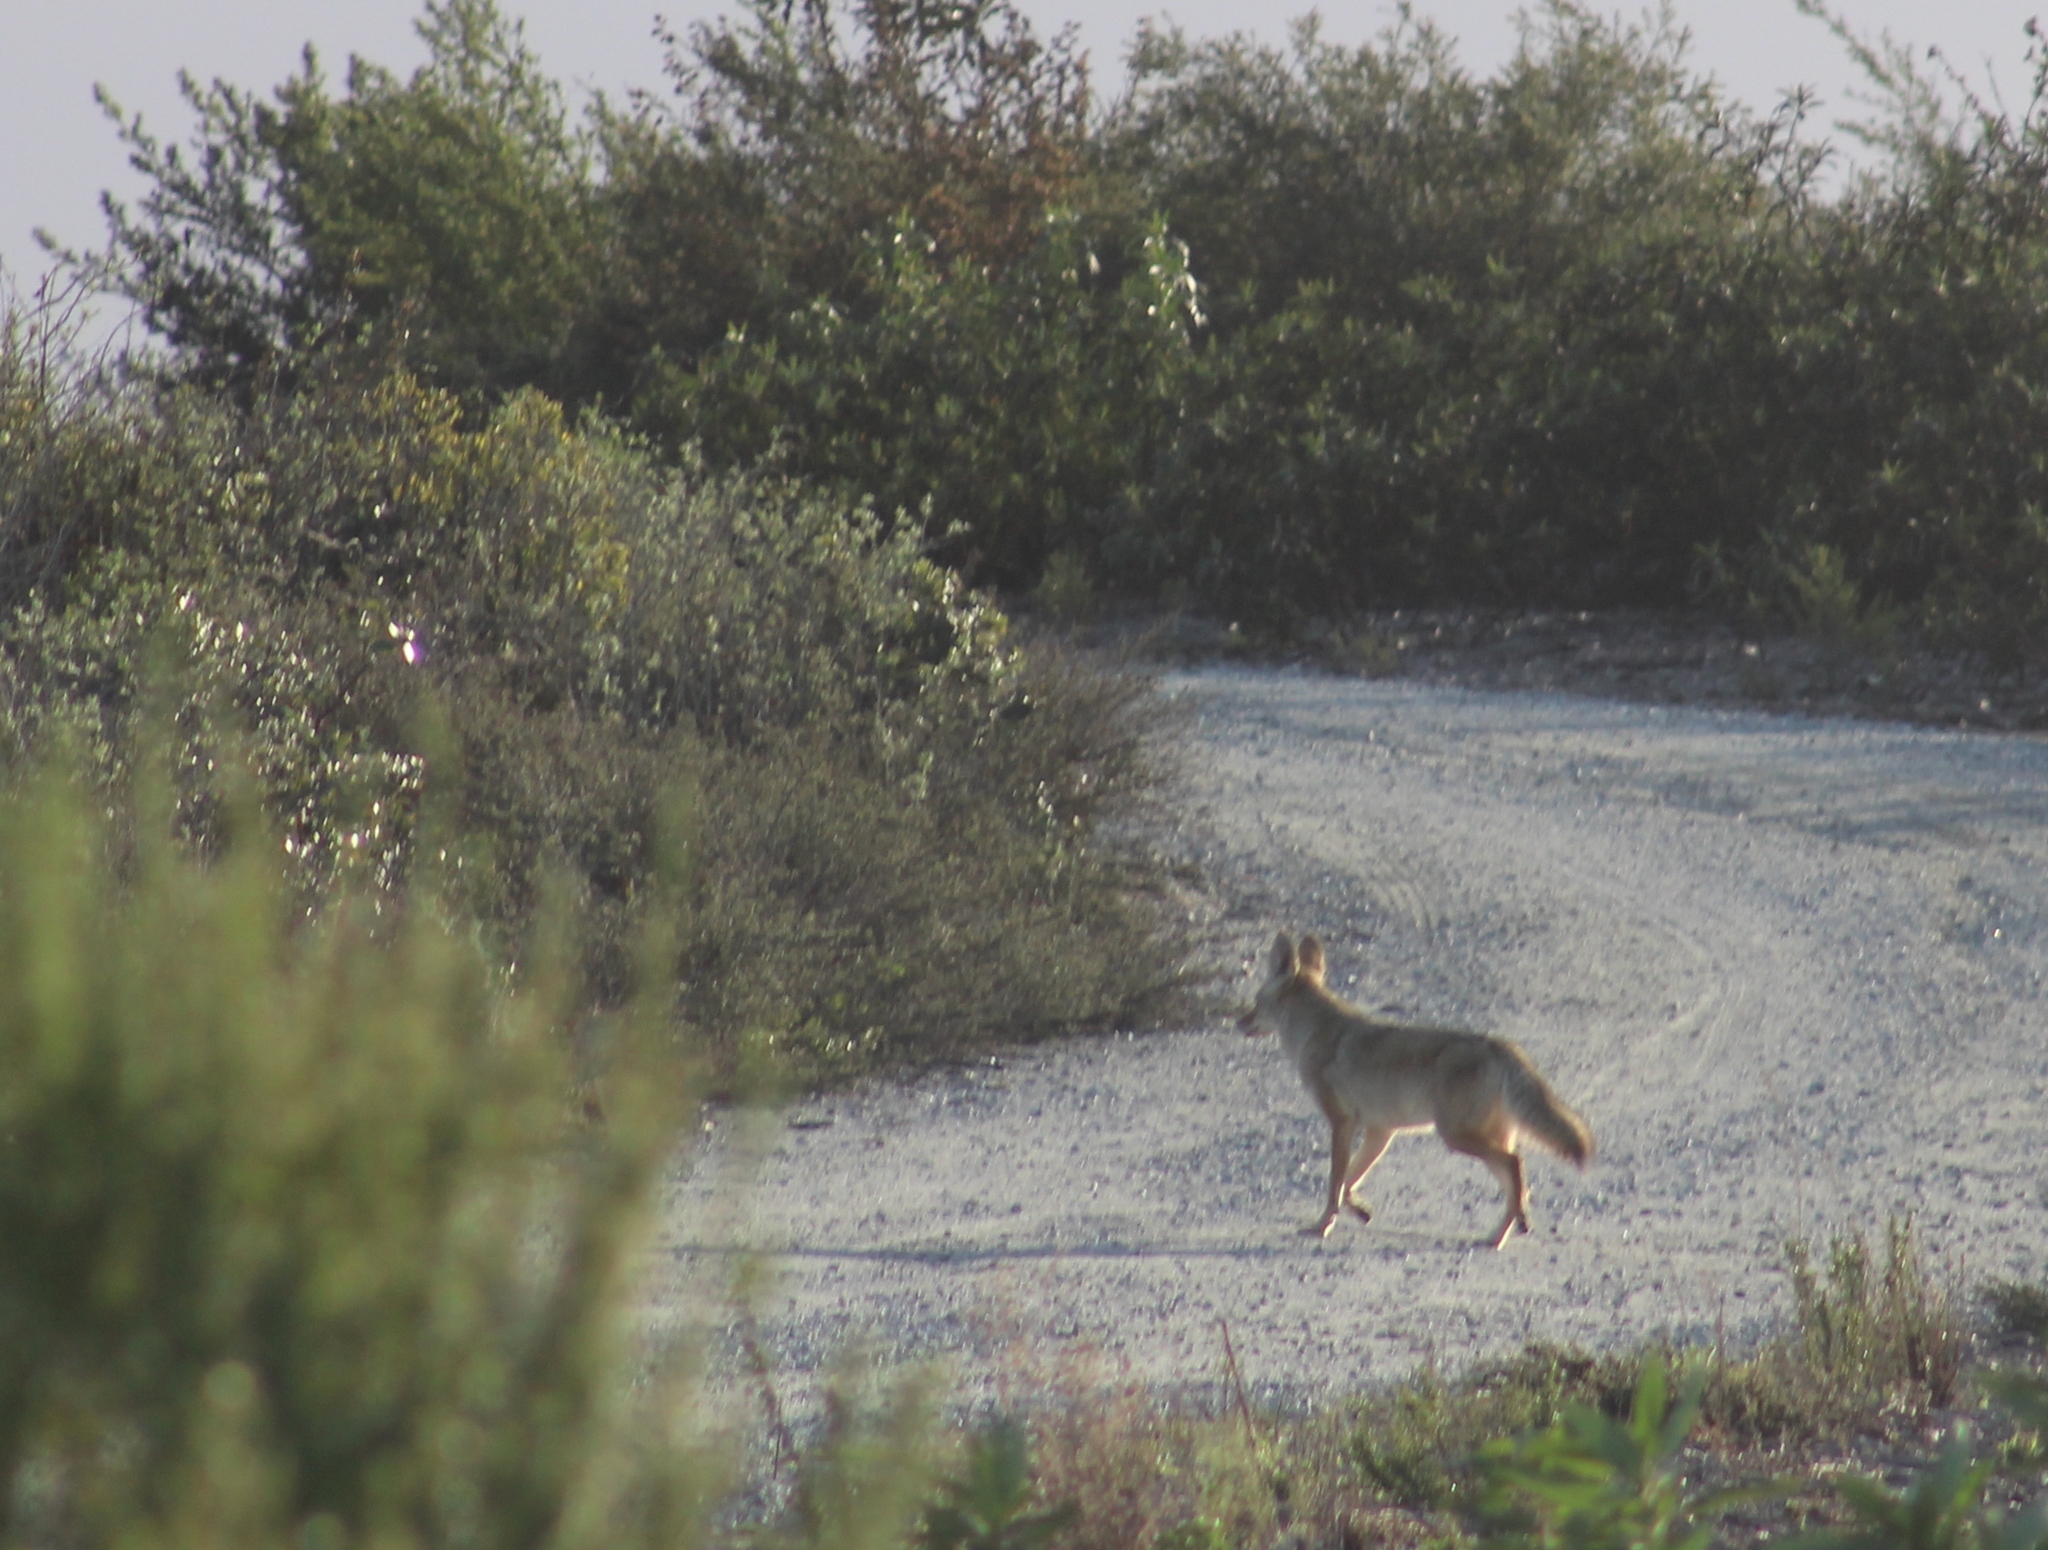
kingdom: Animalia
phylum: Chordata
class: Mammalia
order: Carnivora
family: Canidae
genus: Canis
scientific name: Canis latrans
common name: Coyote
